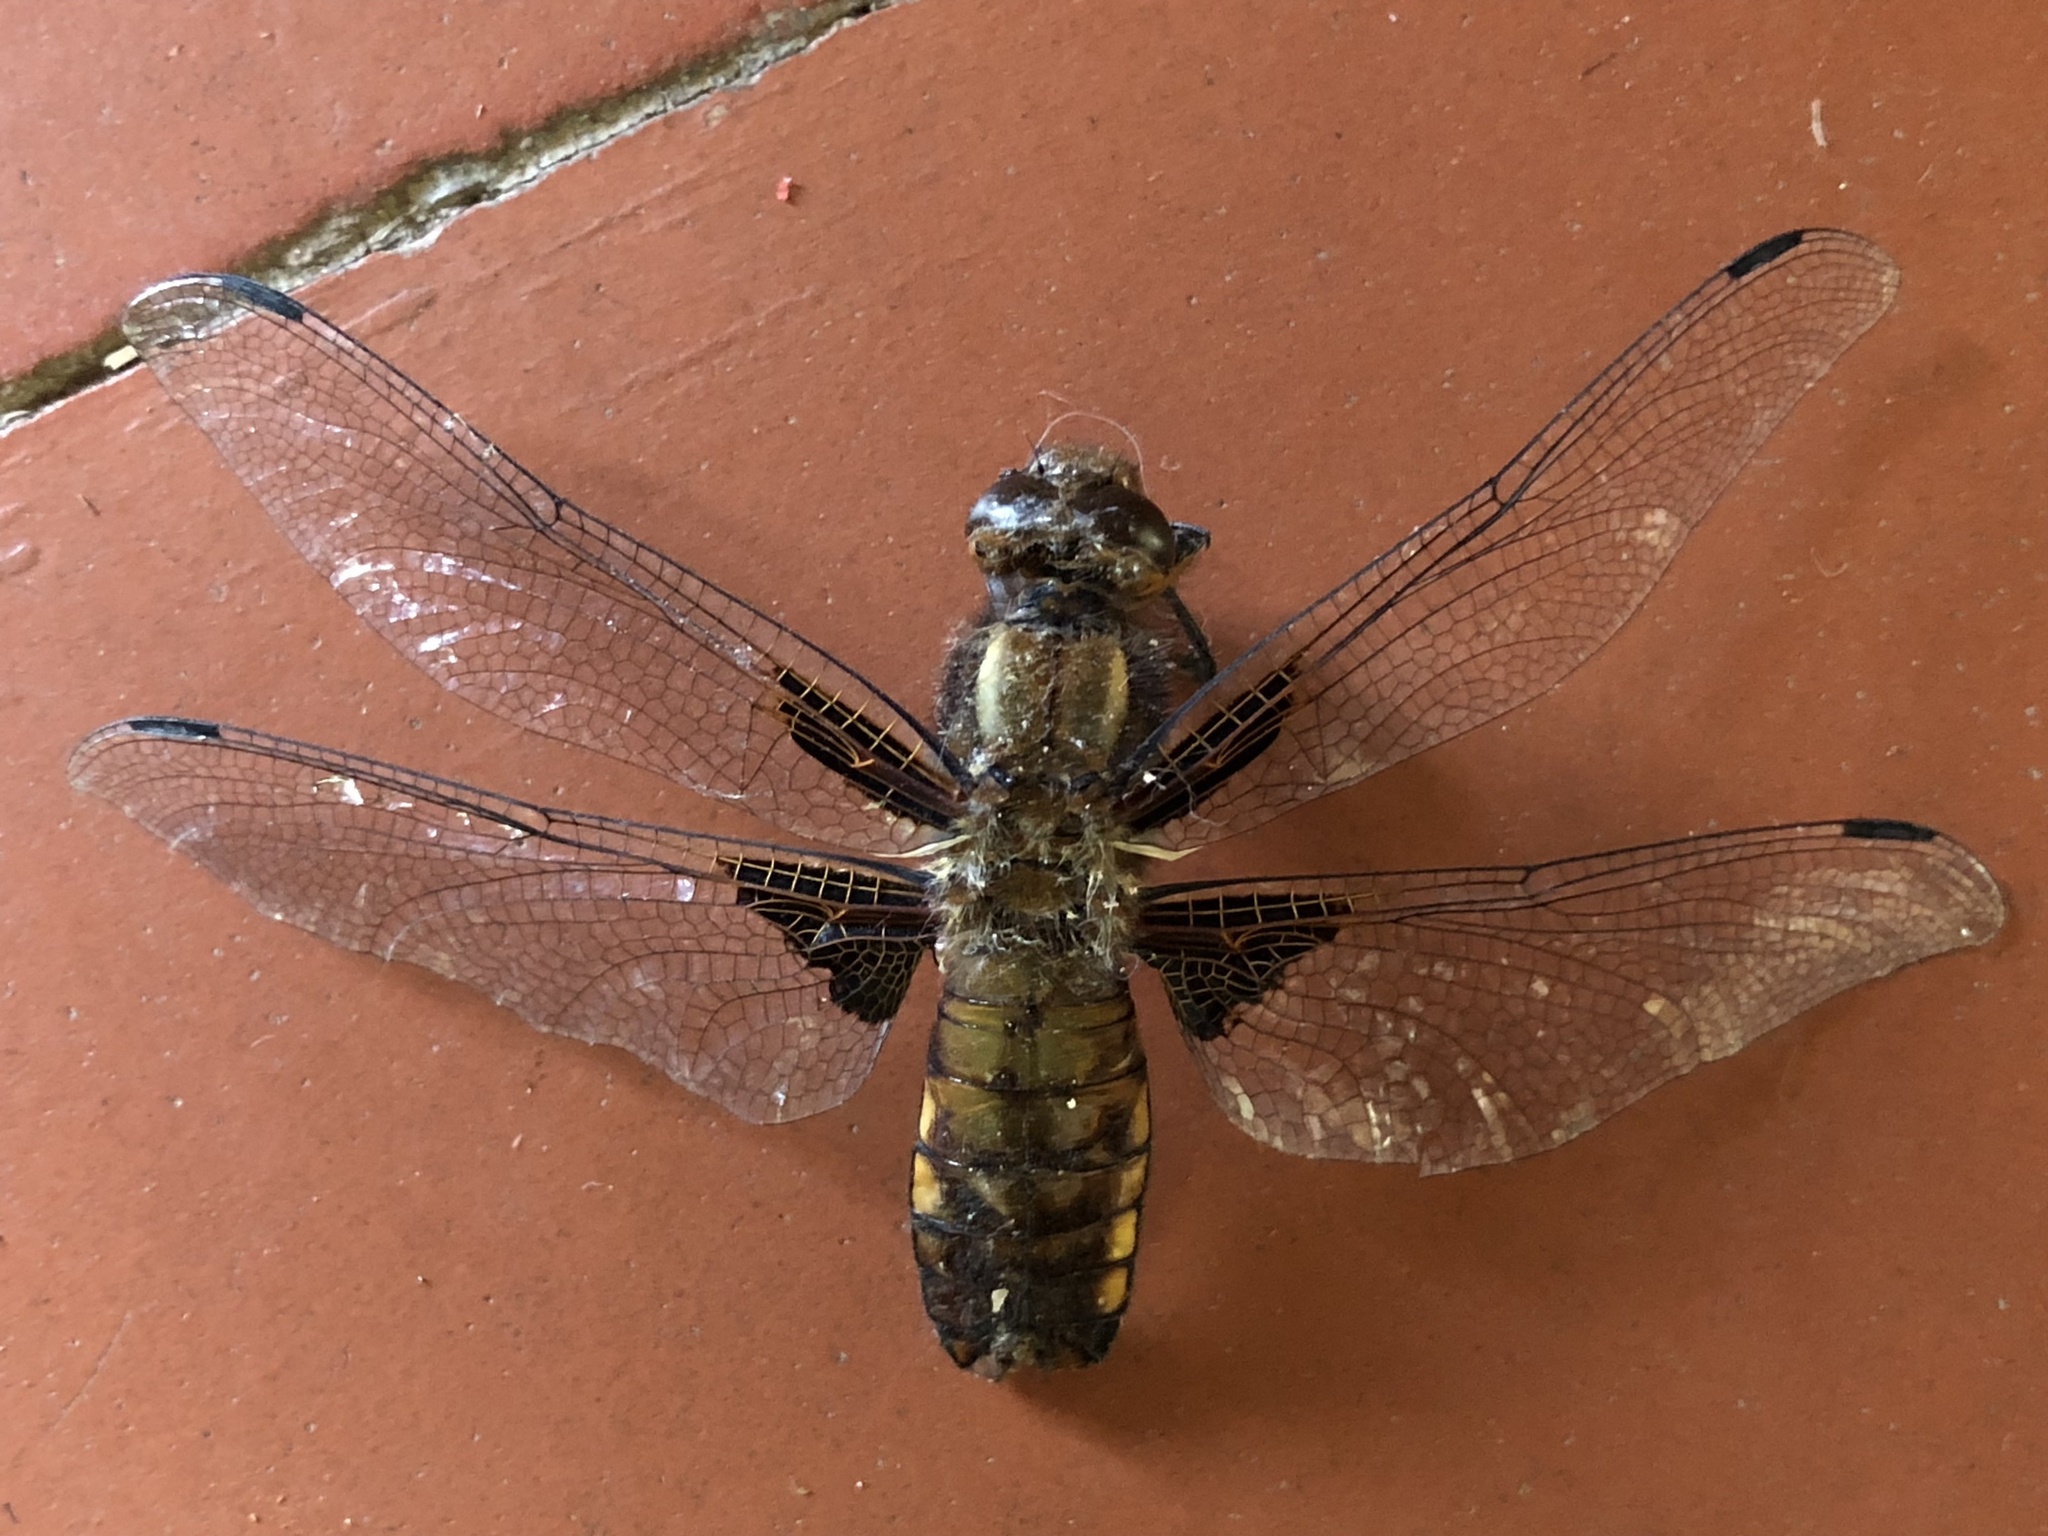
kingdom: Animalia
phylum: Arthropoda
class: Insecta
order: Odonata
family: Libellulidae
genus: Libellula
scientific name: Libellula depressa
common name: Broad-bodied chaser
